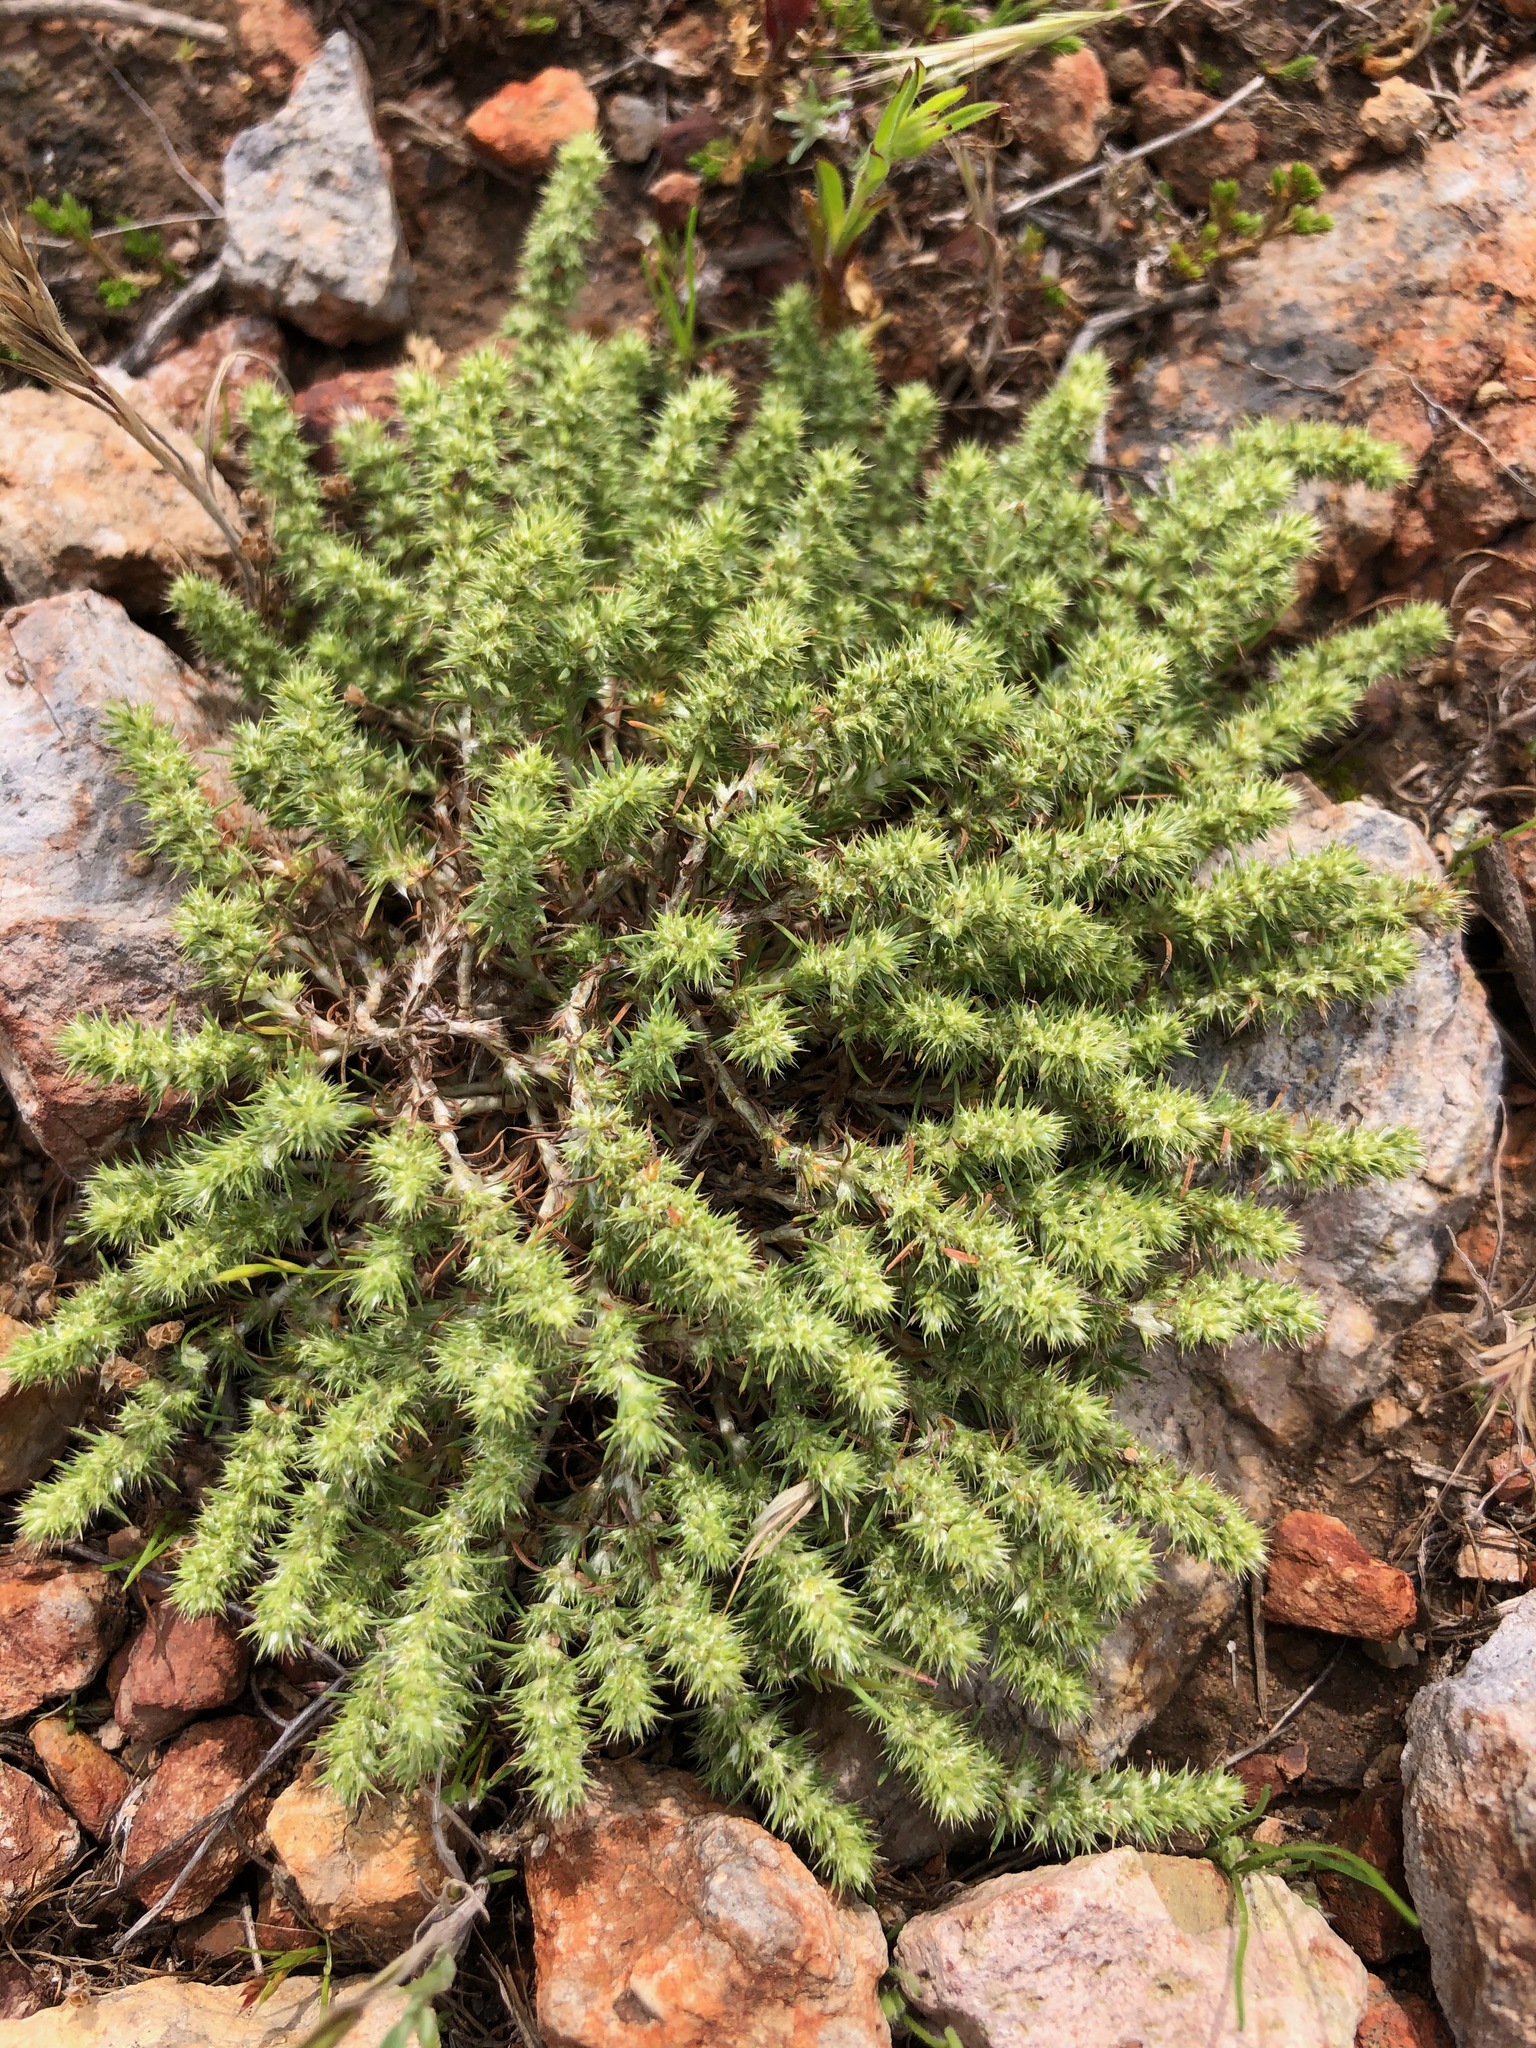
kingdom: Plantae
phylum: Tracheophyta
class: Magnoliopsida
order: Caryophyllales
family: Caryophyllaceae
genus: Cardionema
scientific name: Cardionema ramosissima
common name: Sandcarpet
